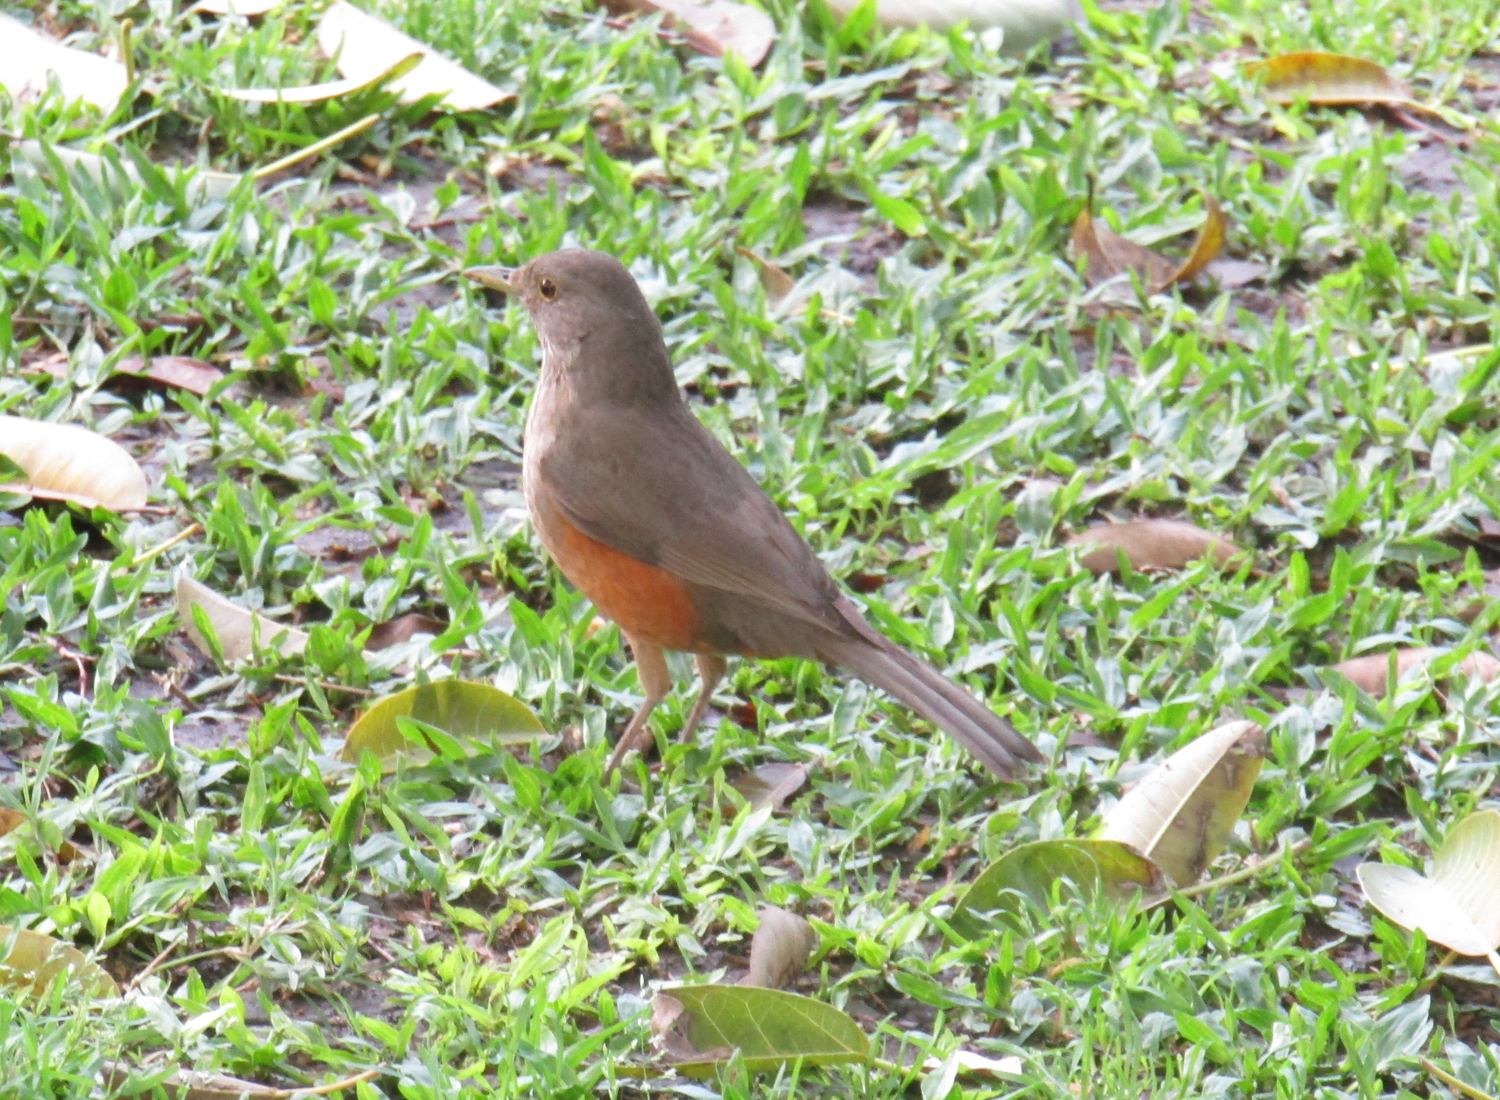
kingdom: Animalia
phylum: Chordata
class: Aves
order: Passeriformes
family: Turdidae
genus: Turdus
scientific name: Turdus rufiventris
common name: Rufous-bellied thrush
